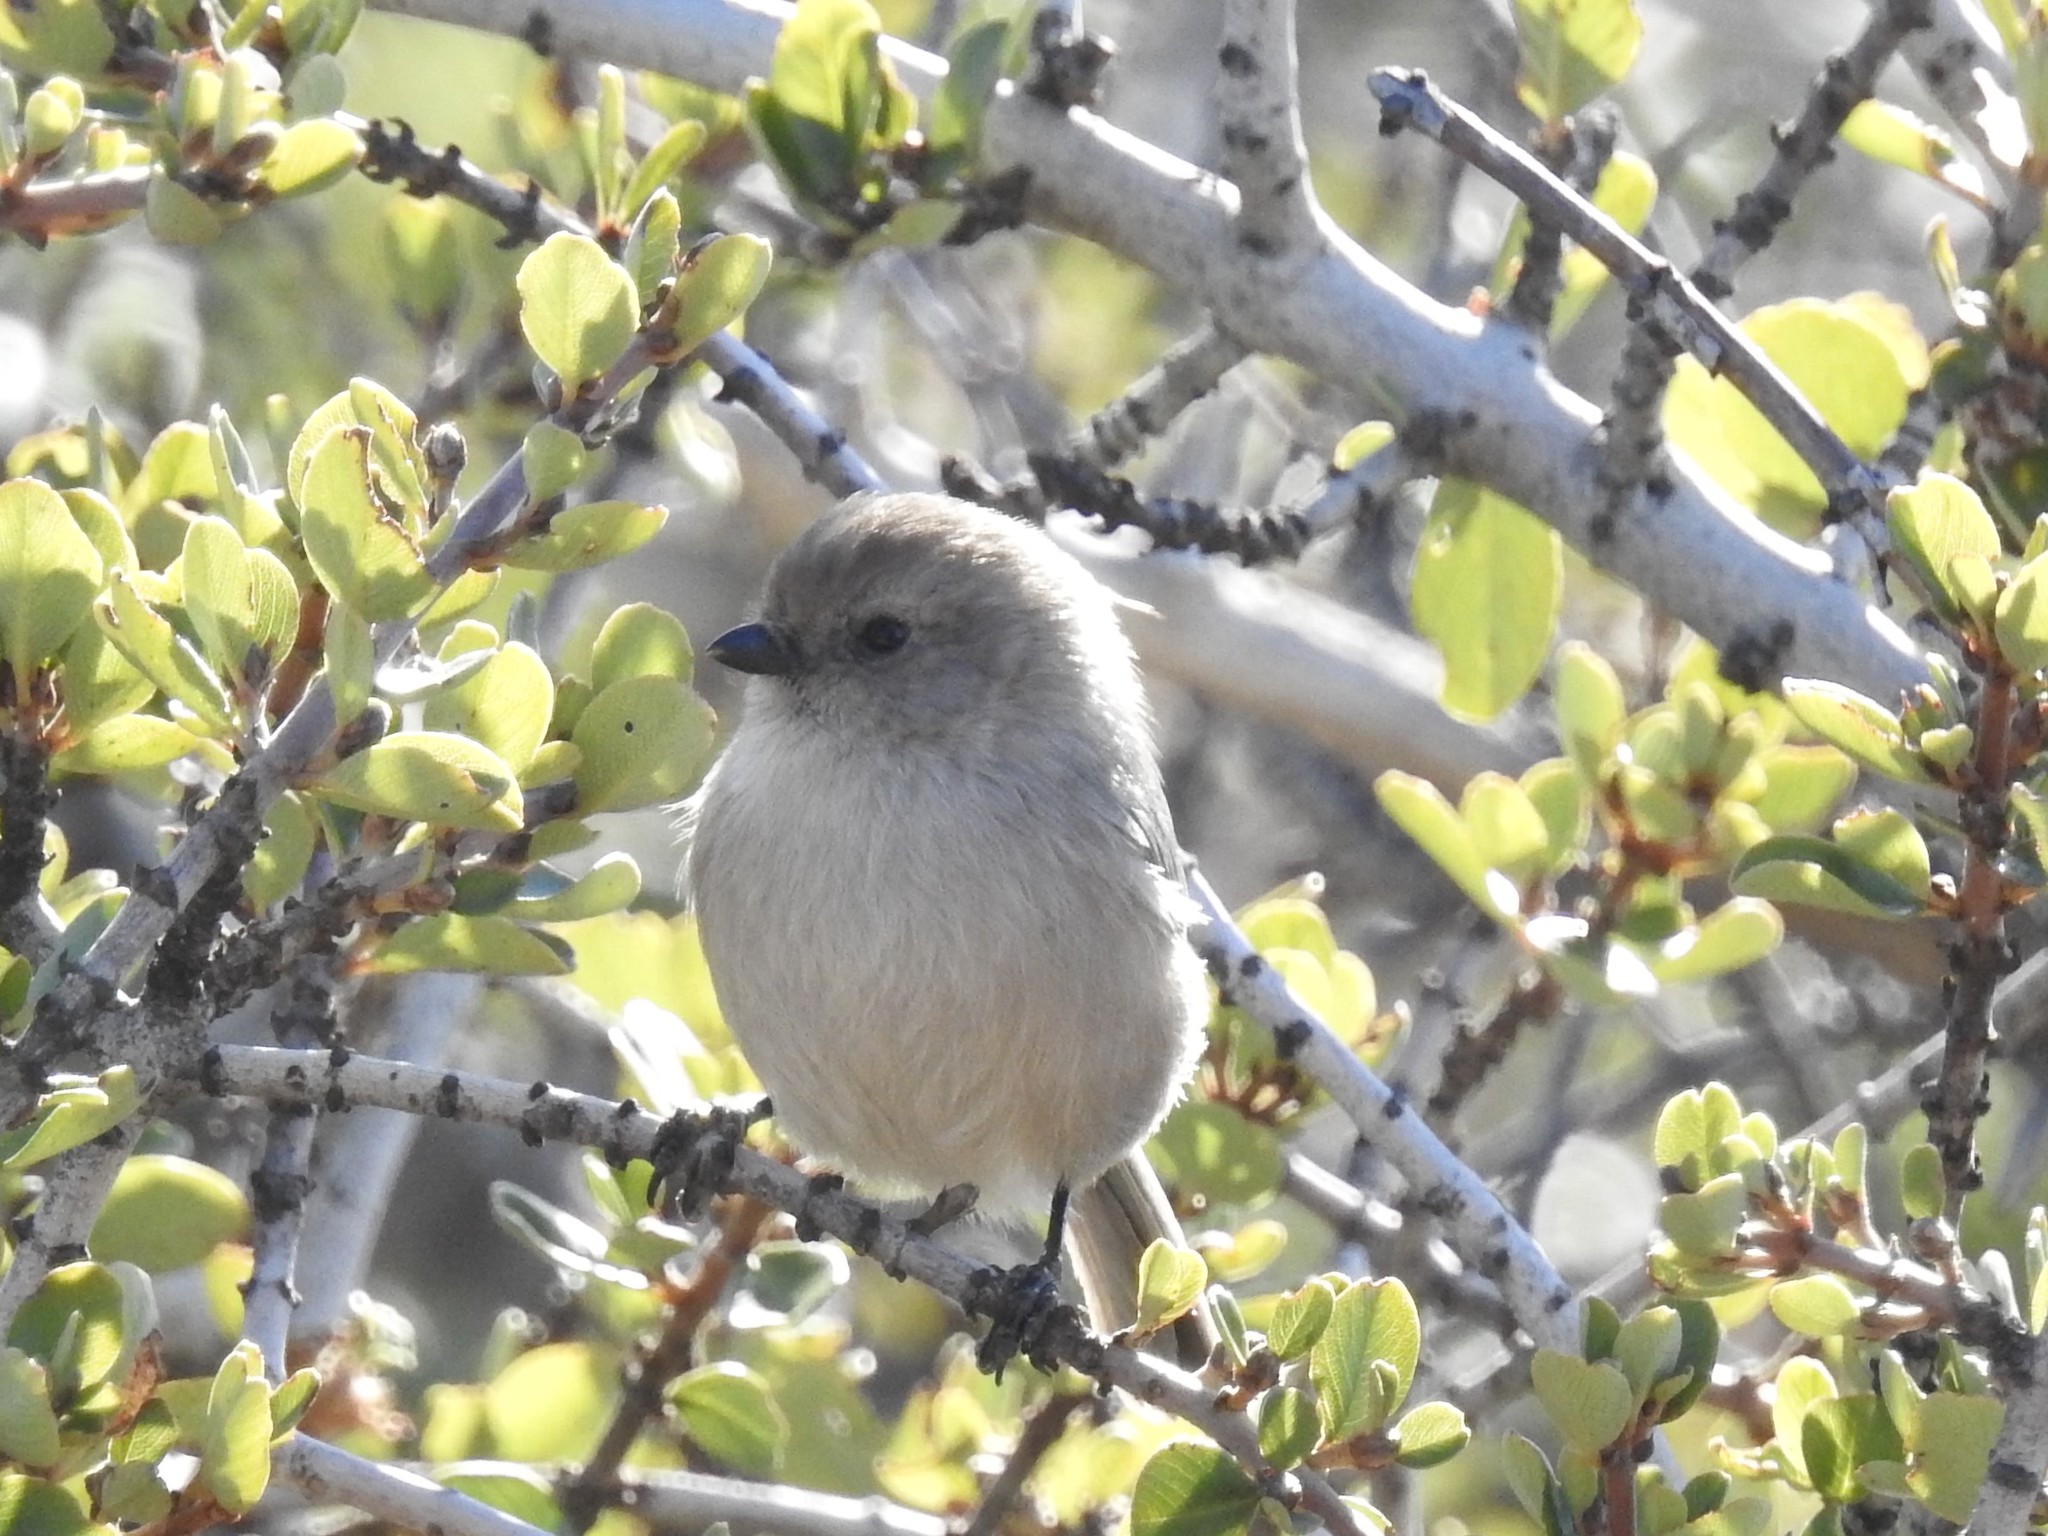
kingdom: Animalia
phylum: Chordata
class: Aves
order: Passeriformes
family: Aegithalidae
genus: Psaltriparus
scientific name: Psaltriparus minimus
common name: American bushtit
